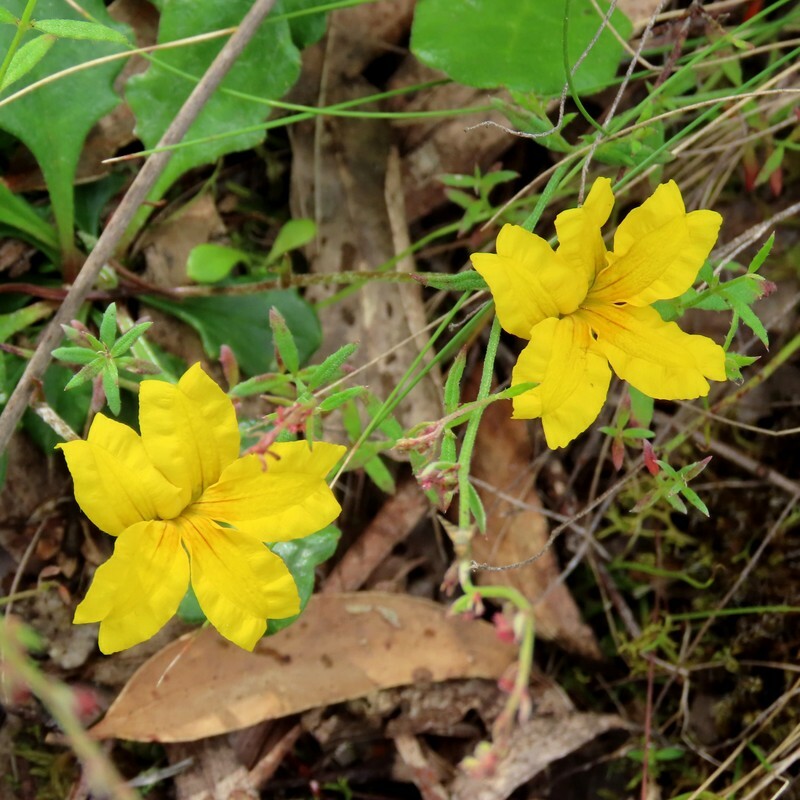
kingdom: Plantae
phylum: Tracheophyta
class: Magnoliopsida
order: Asterales
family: Goodeniaceae
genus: Goodenia
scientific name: Goodenia lanata
